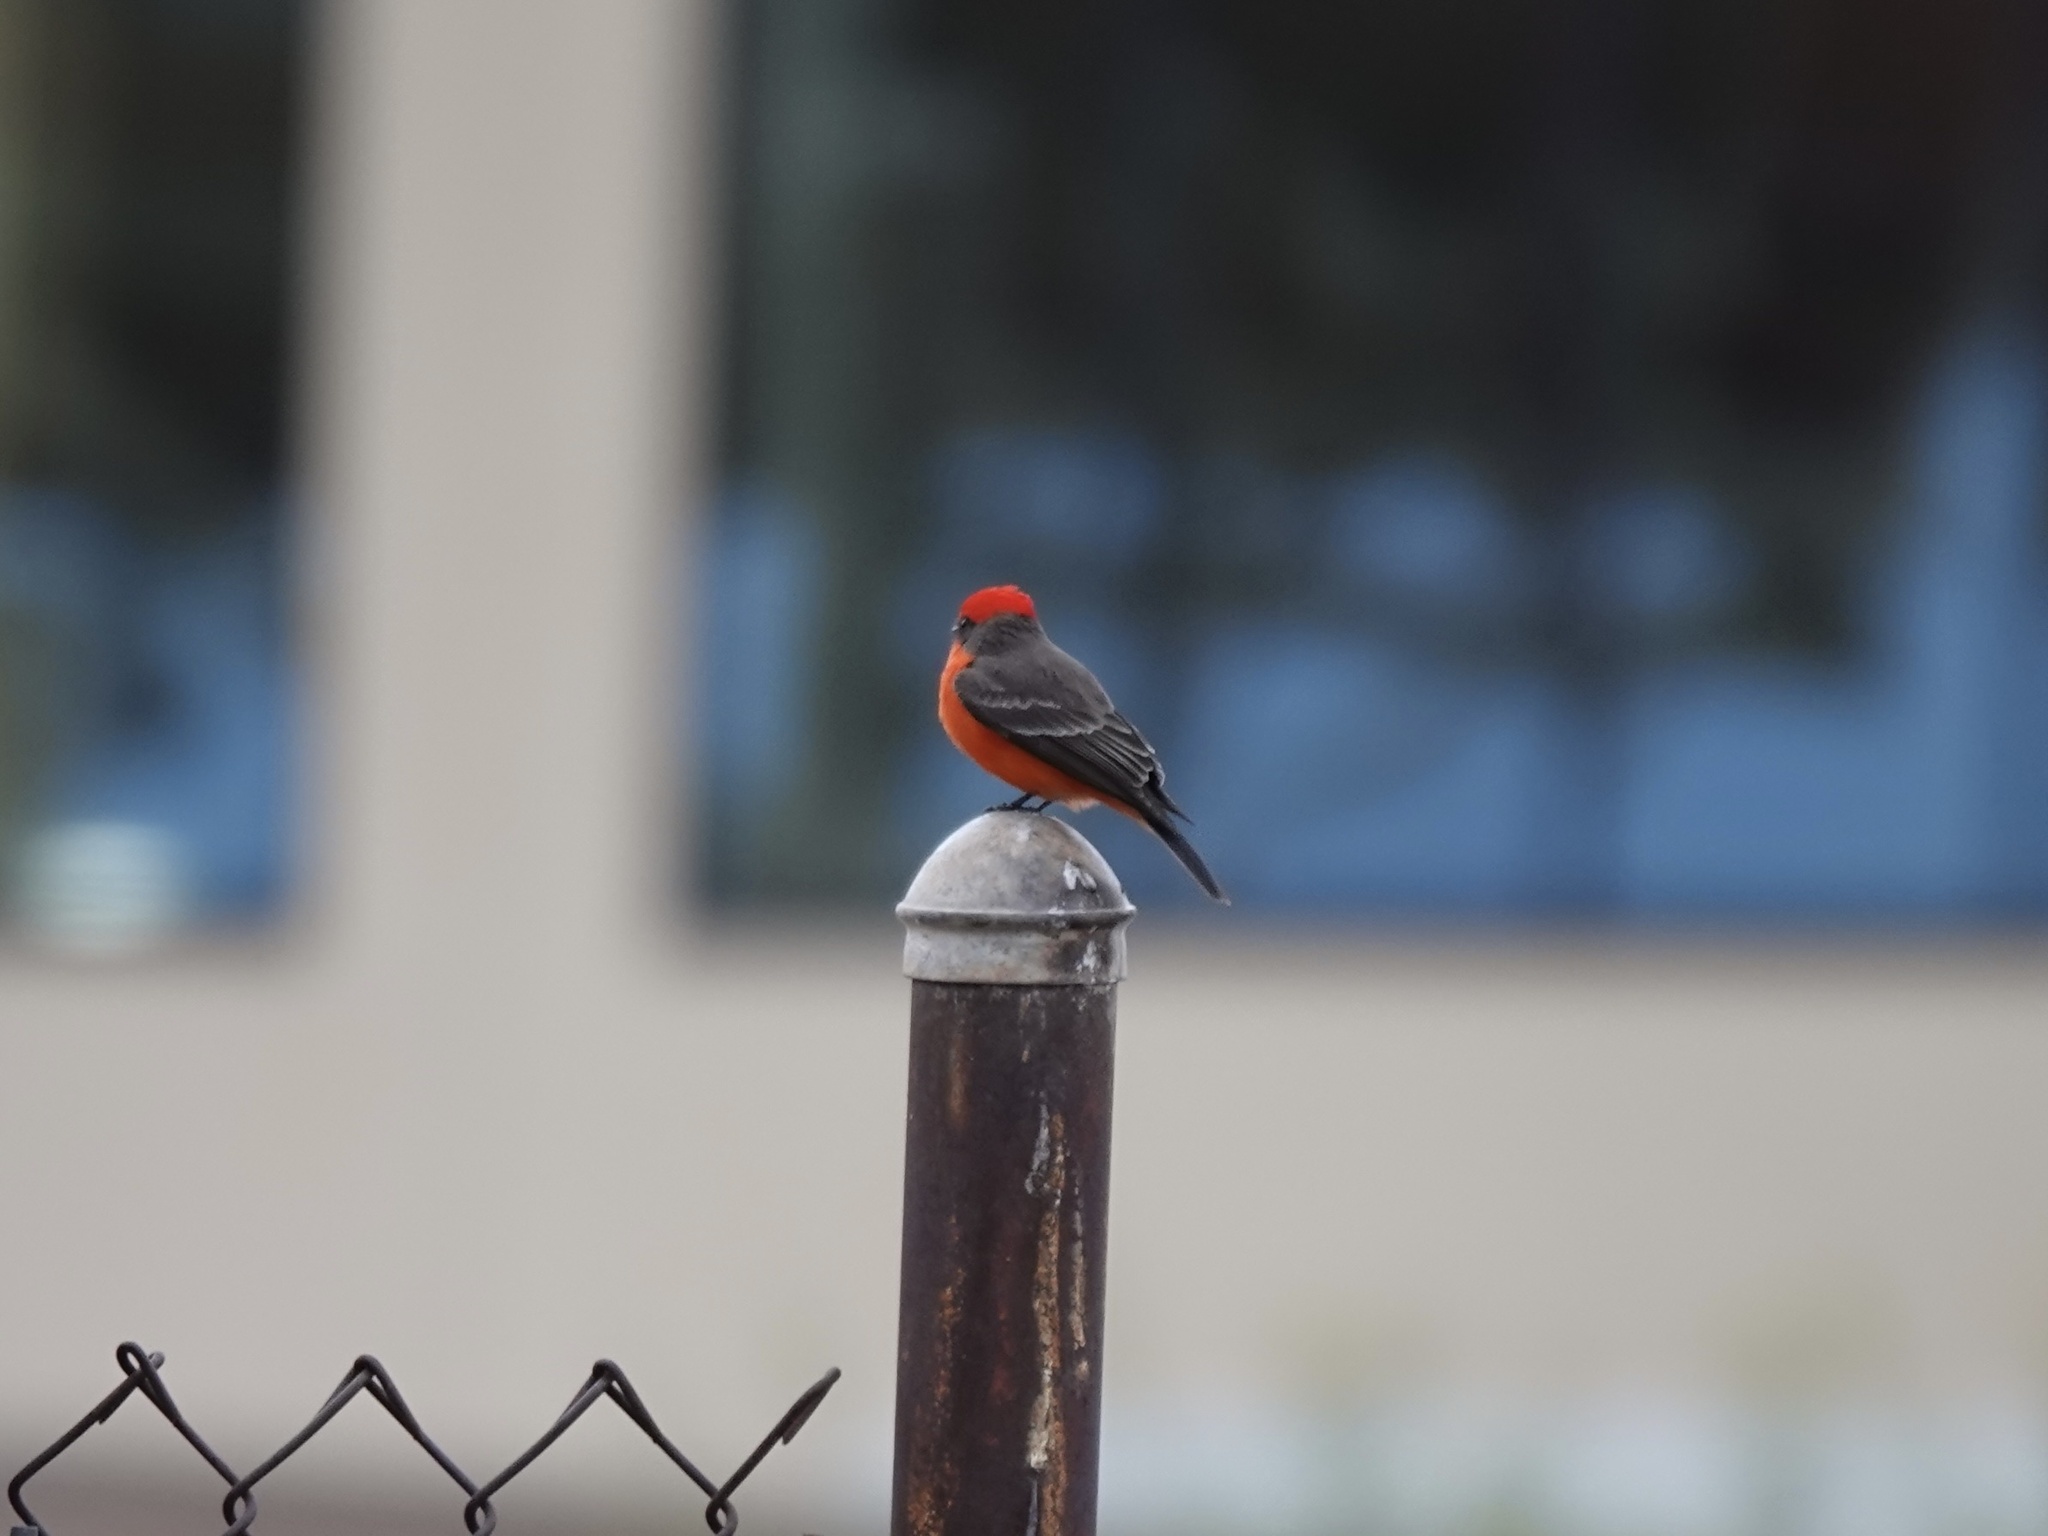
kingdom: Animalia
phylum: Chordata
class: Aves
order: Passeriformes
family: Tyrannidae
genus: Pyrocephalus
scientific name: Pyrocephalus rubinus
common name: Vermilion flycatcher
